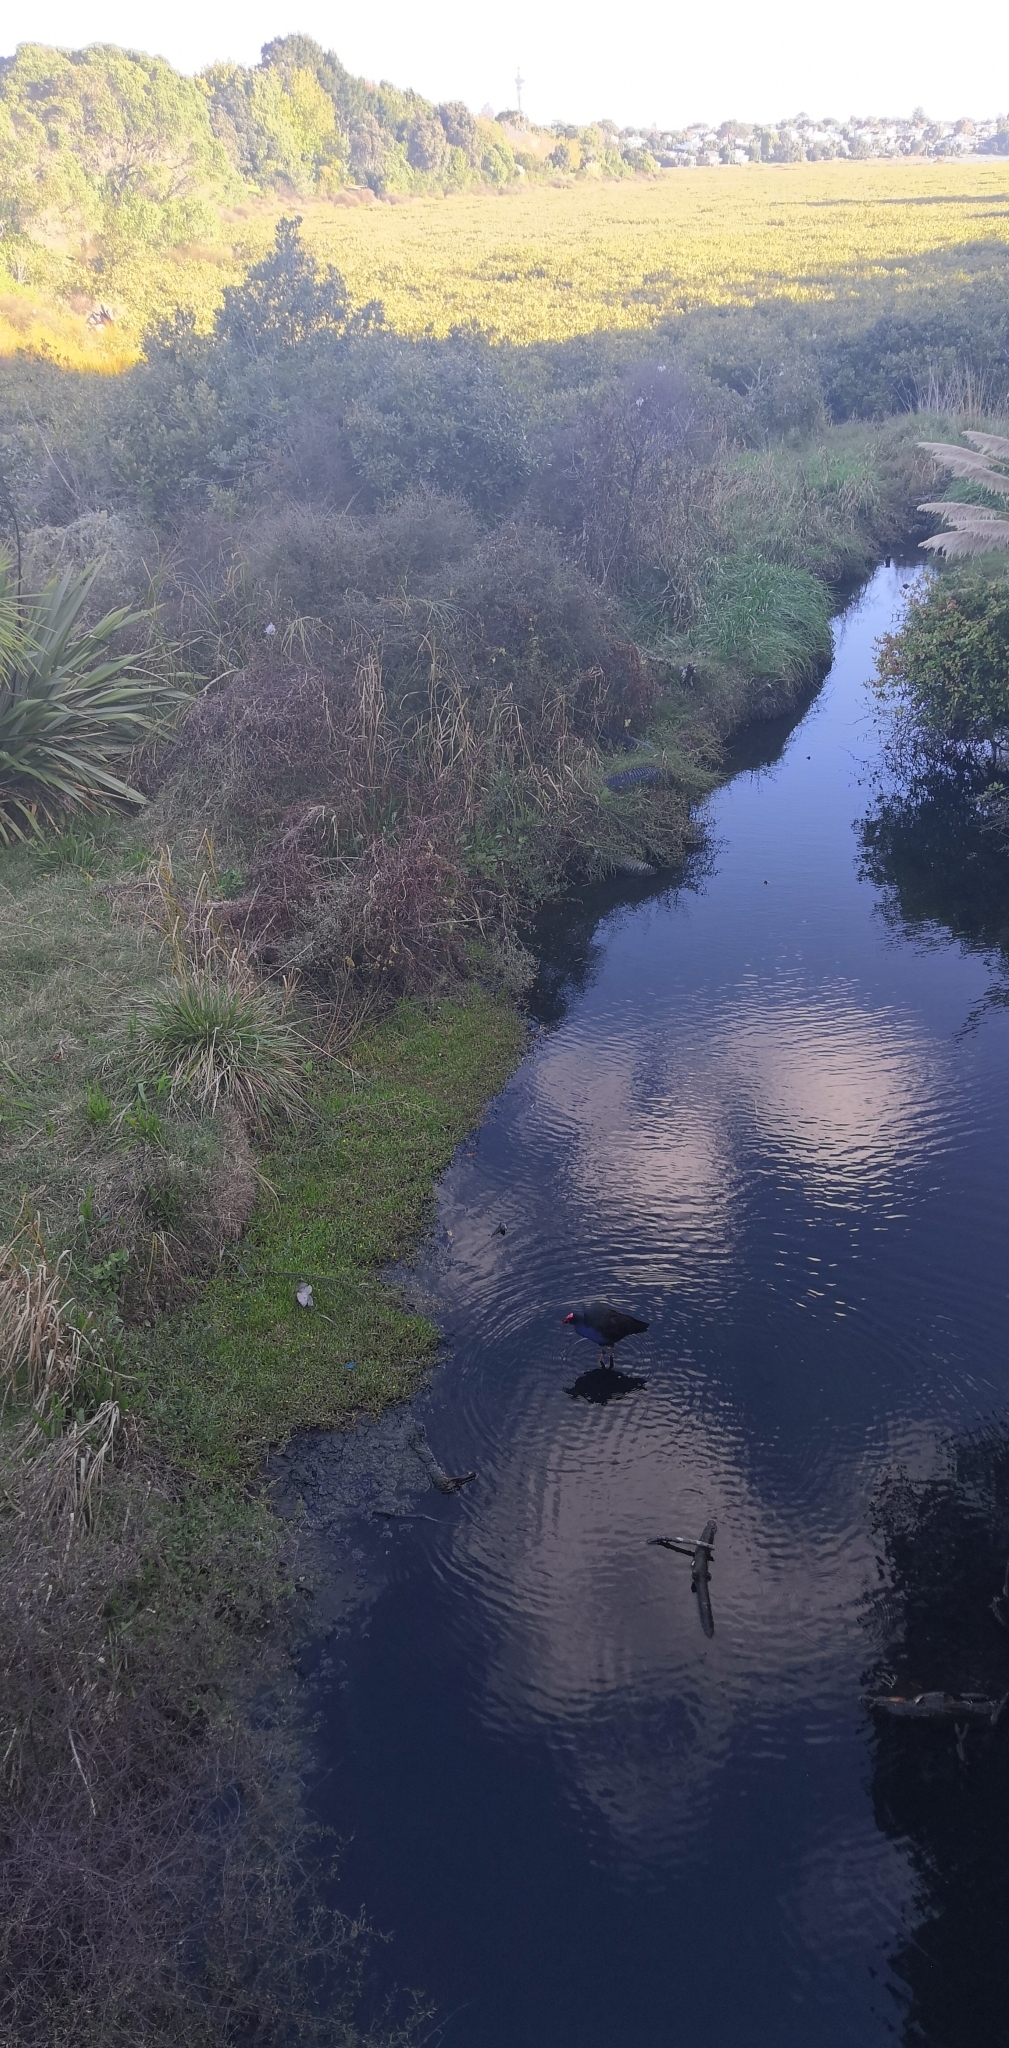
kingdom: Animalia
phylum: Chordata
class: Aves
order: Gruiformes
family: Rallidae
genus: Porphyrio
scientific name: Porphyrio melanotus
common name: Australasian swamphen
